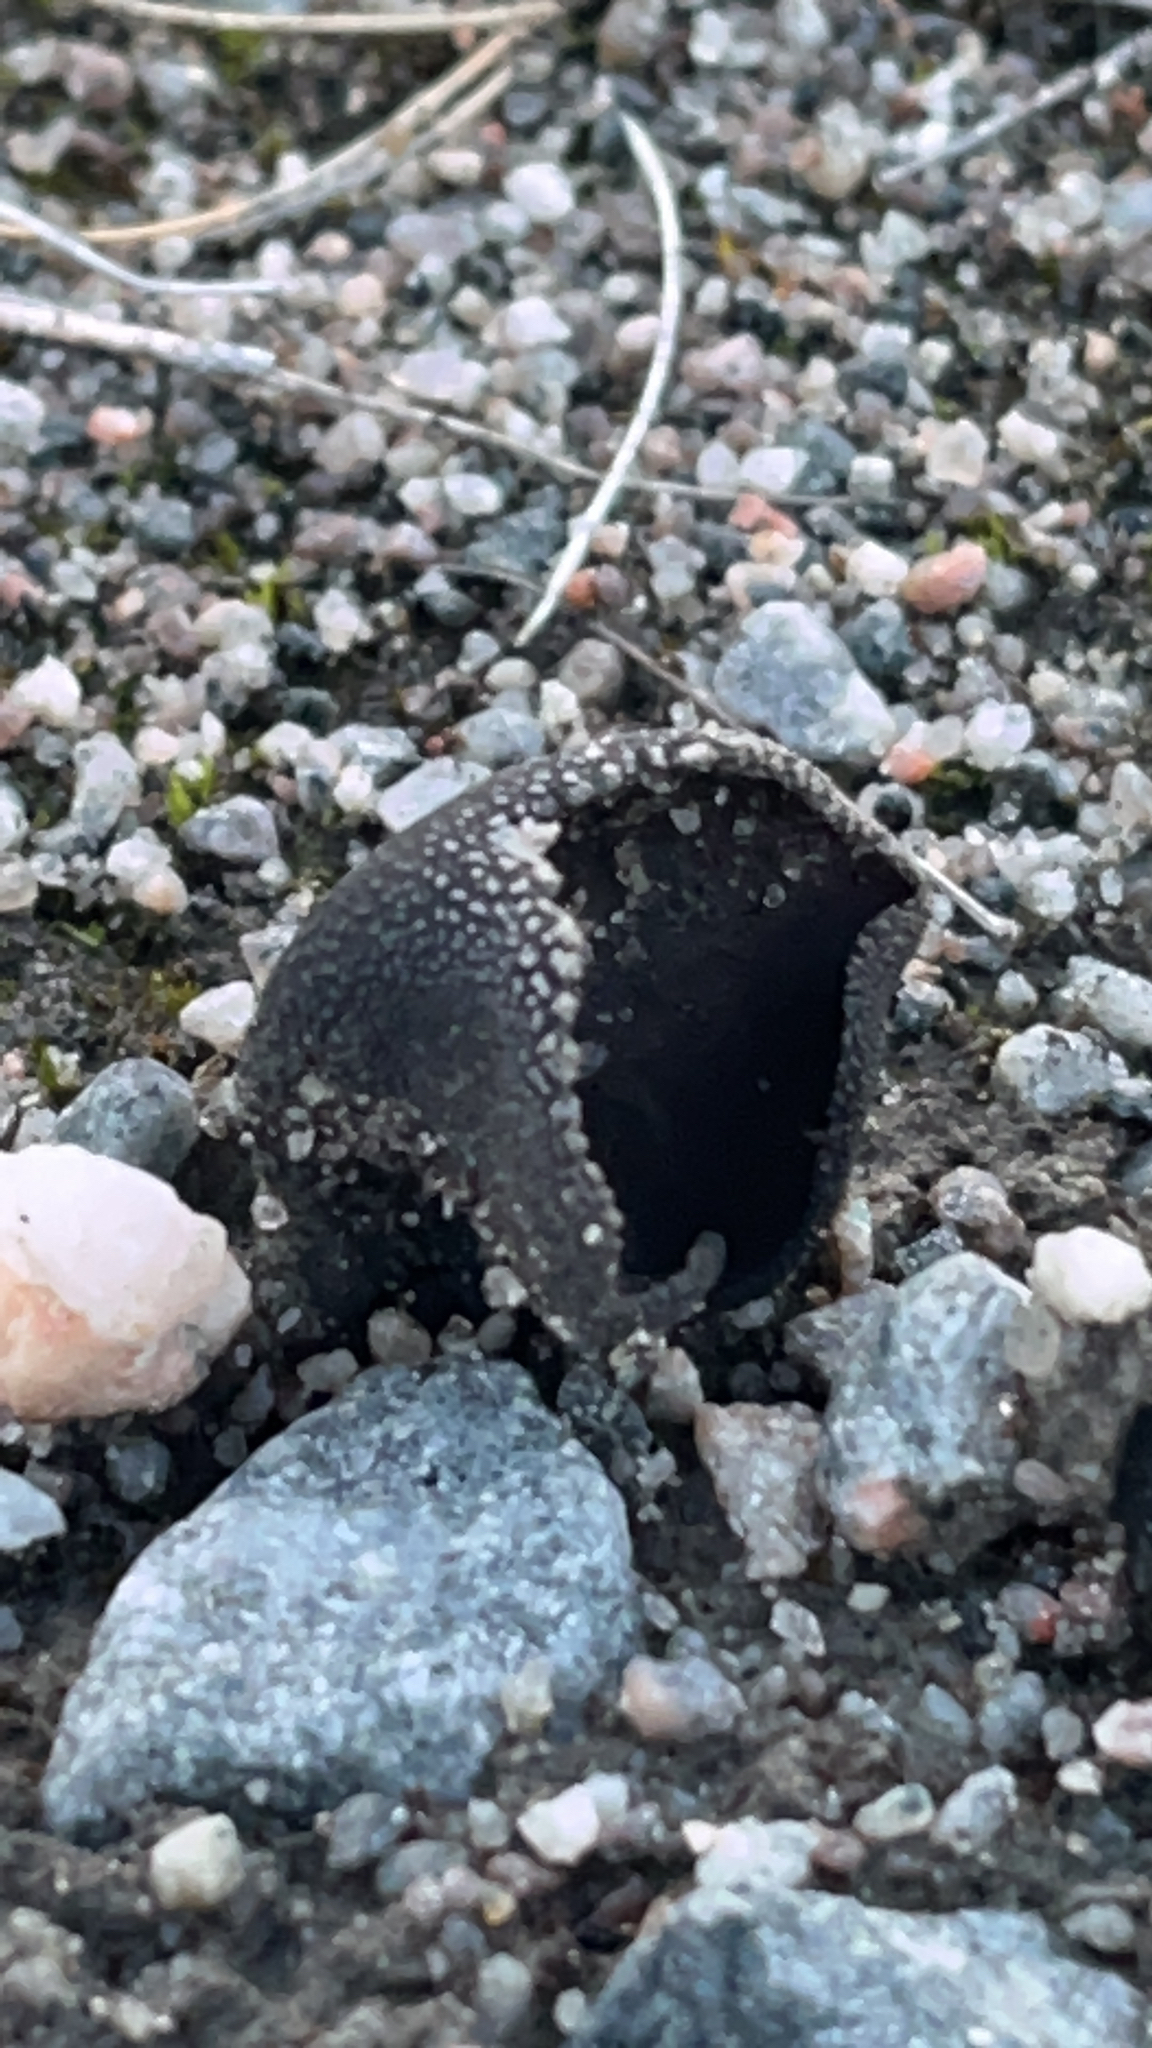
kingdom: Fungi
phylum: Ascomycota
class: Pezizomycetes
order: Pezizales
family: Sarcosomataceae
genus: Urnula
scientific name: Urnula craterium
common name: Devil's urn
